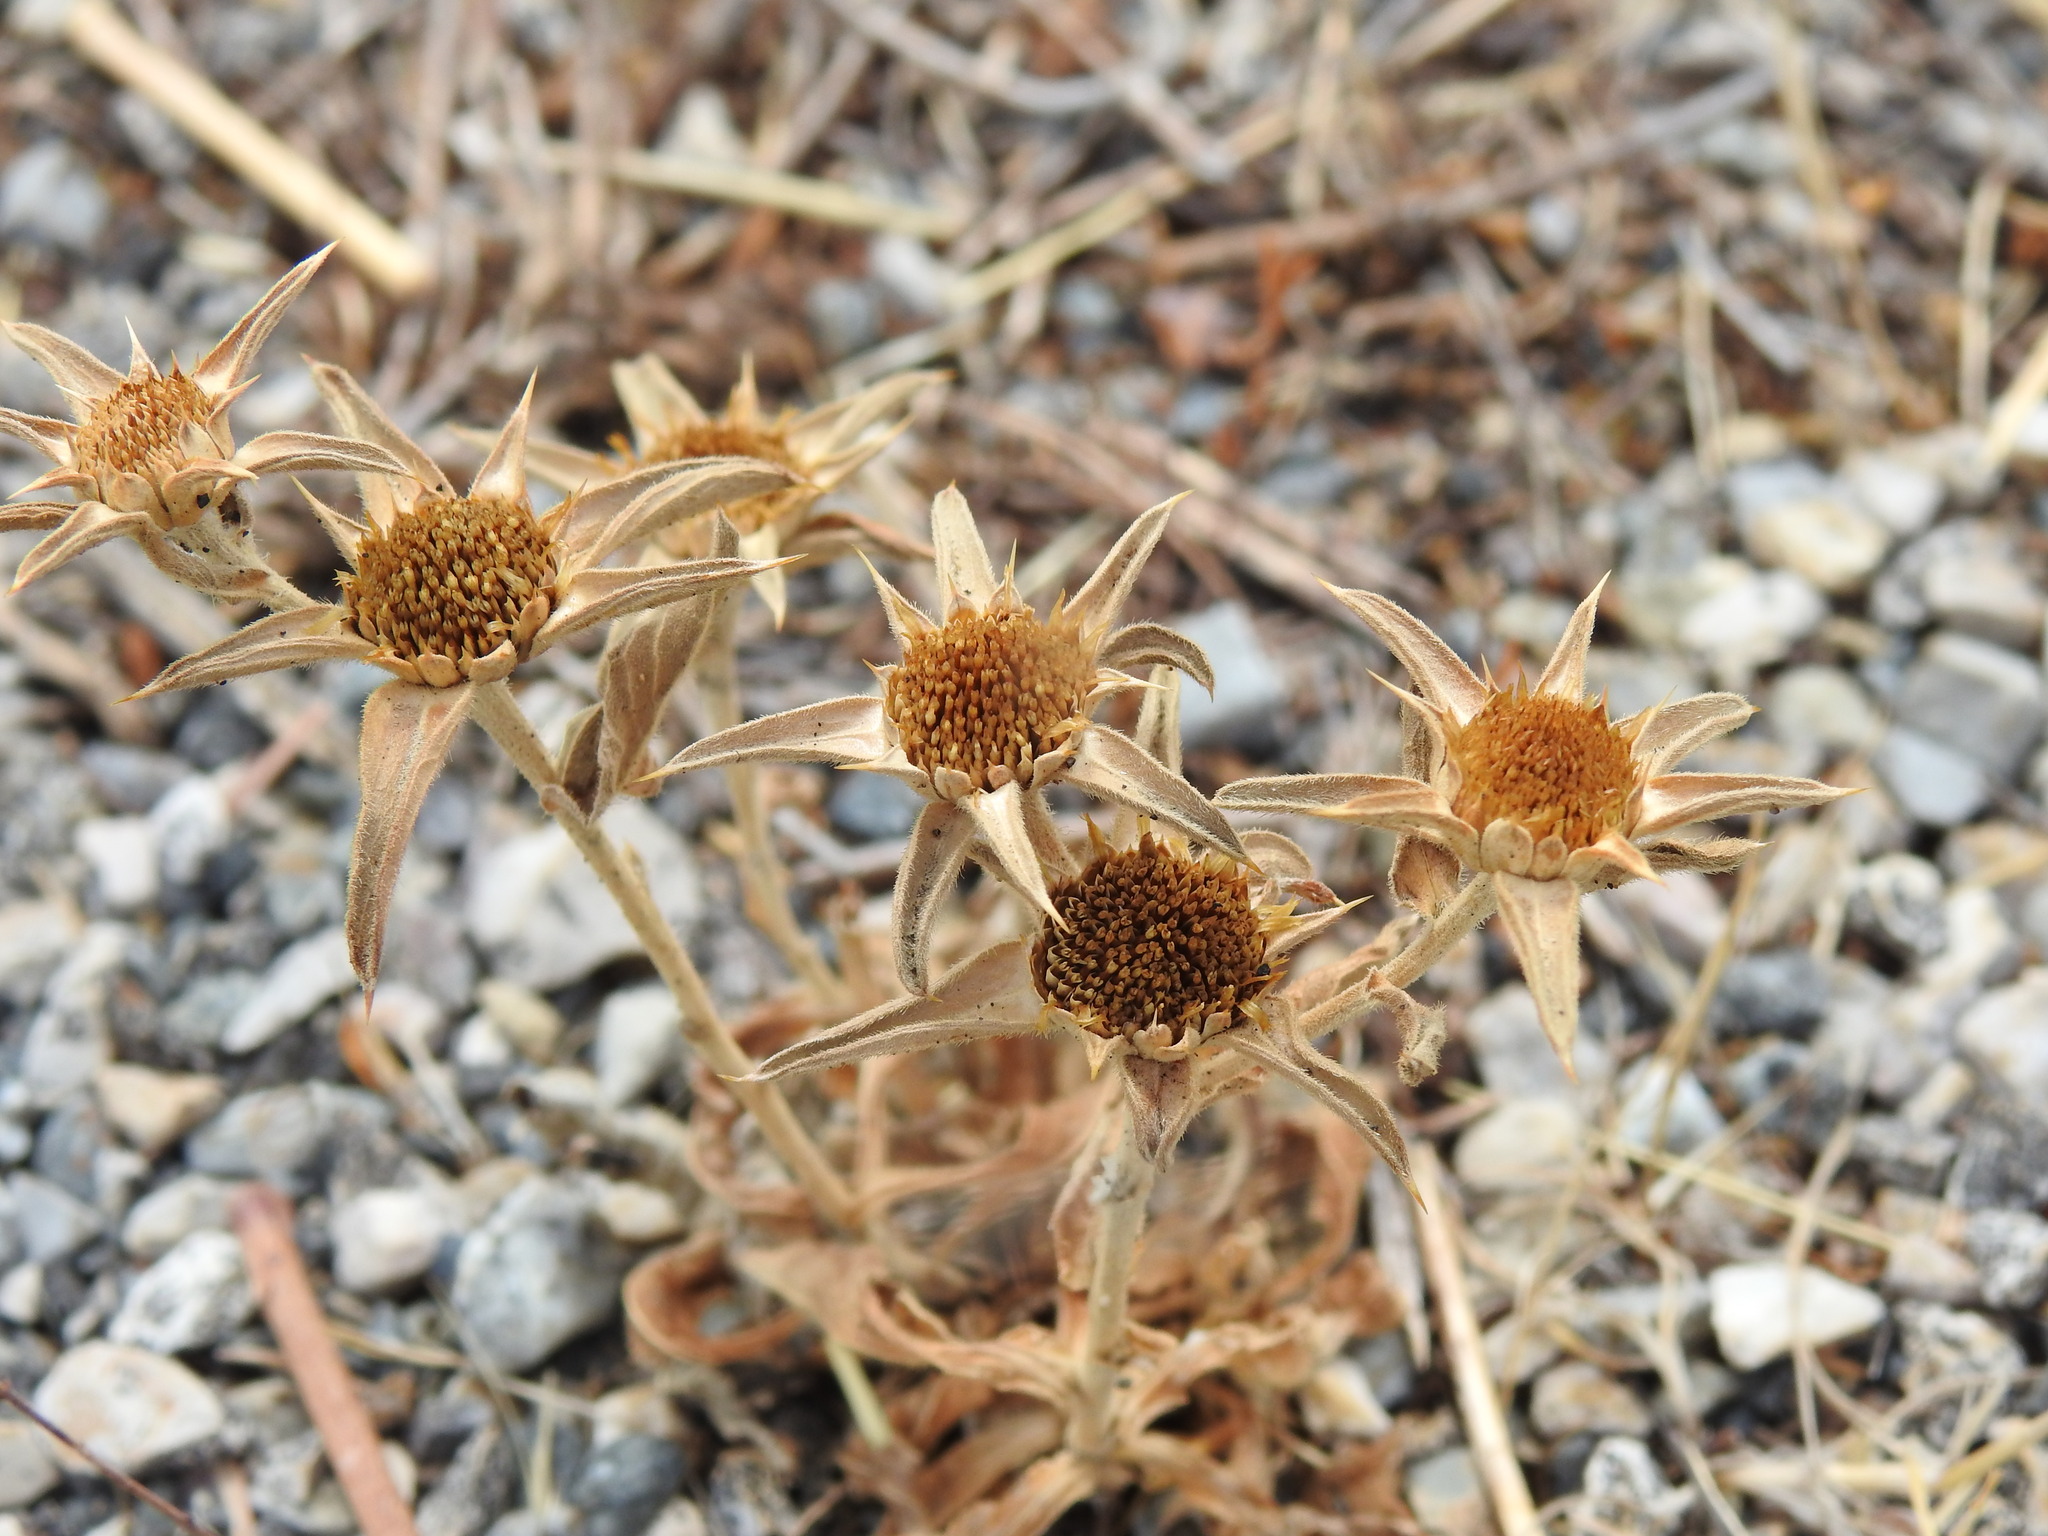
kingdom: Plantae
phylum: Tracheophyta
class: Magnoliopsida
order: Asterales
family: Asteraceae
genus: Pallenis
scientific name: Pallenis spinosa
